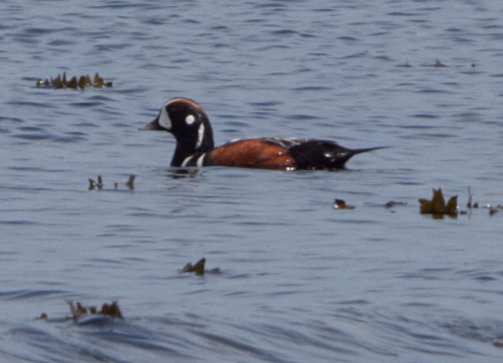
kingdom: Animalia
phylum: Chordata
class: Aves
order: Anseriformes
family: Anatidae
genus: Histrionicus
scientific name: Histrionicus histrionicus
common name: Harlequin duck
